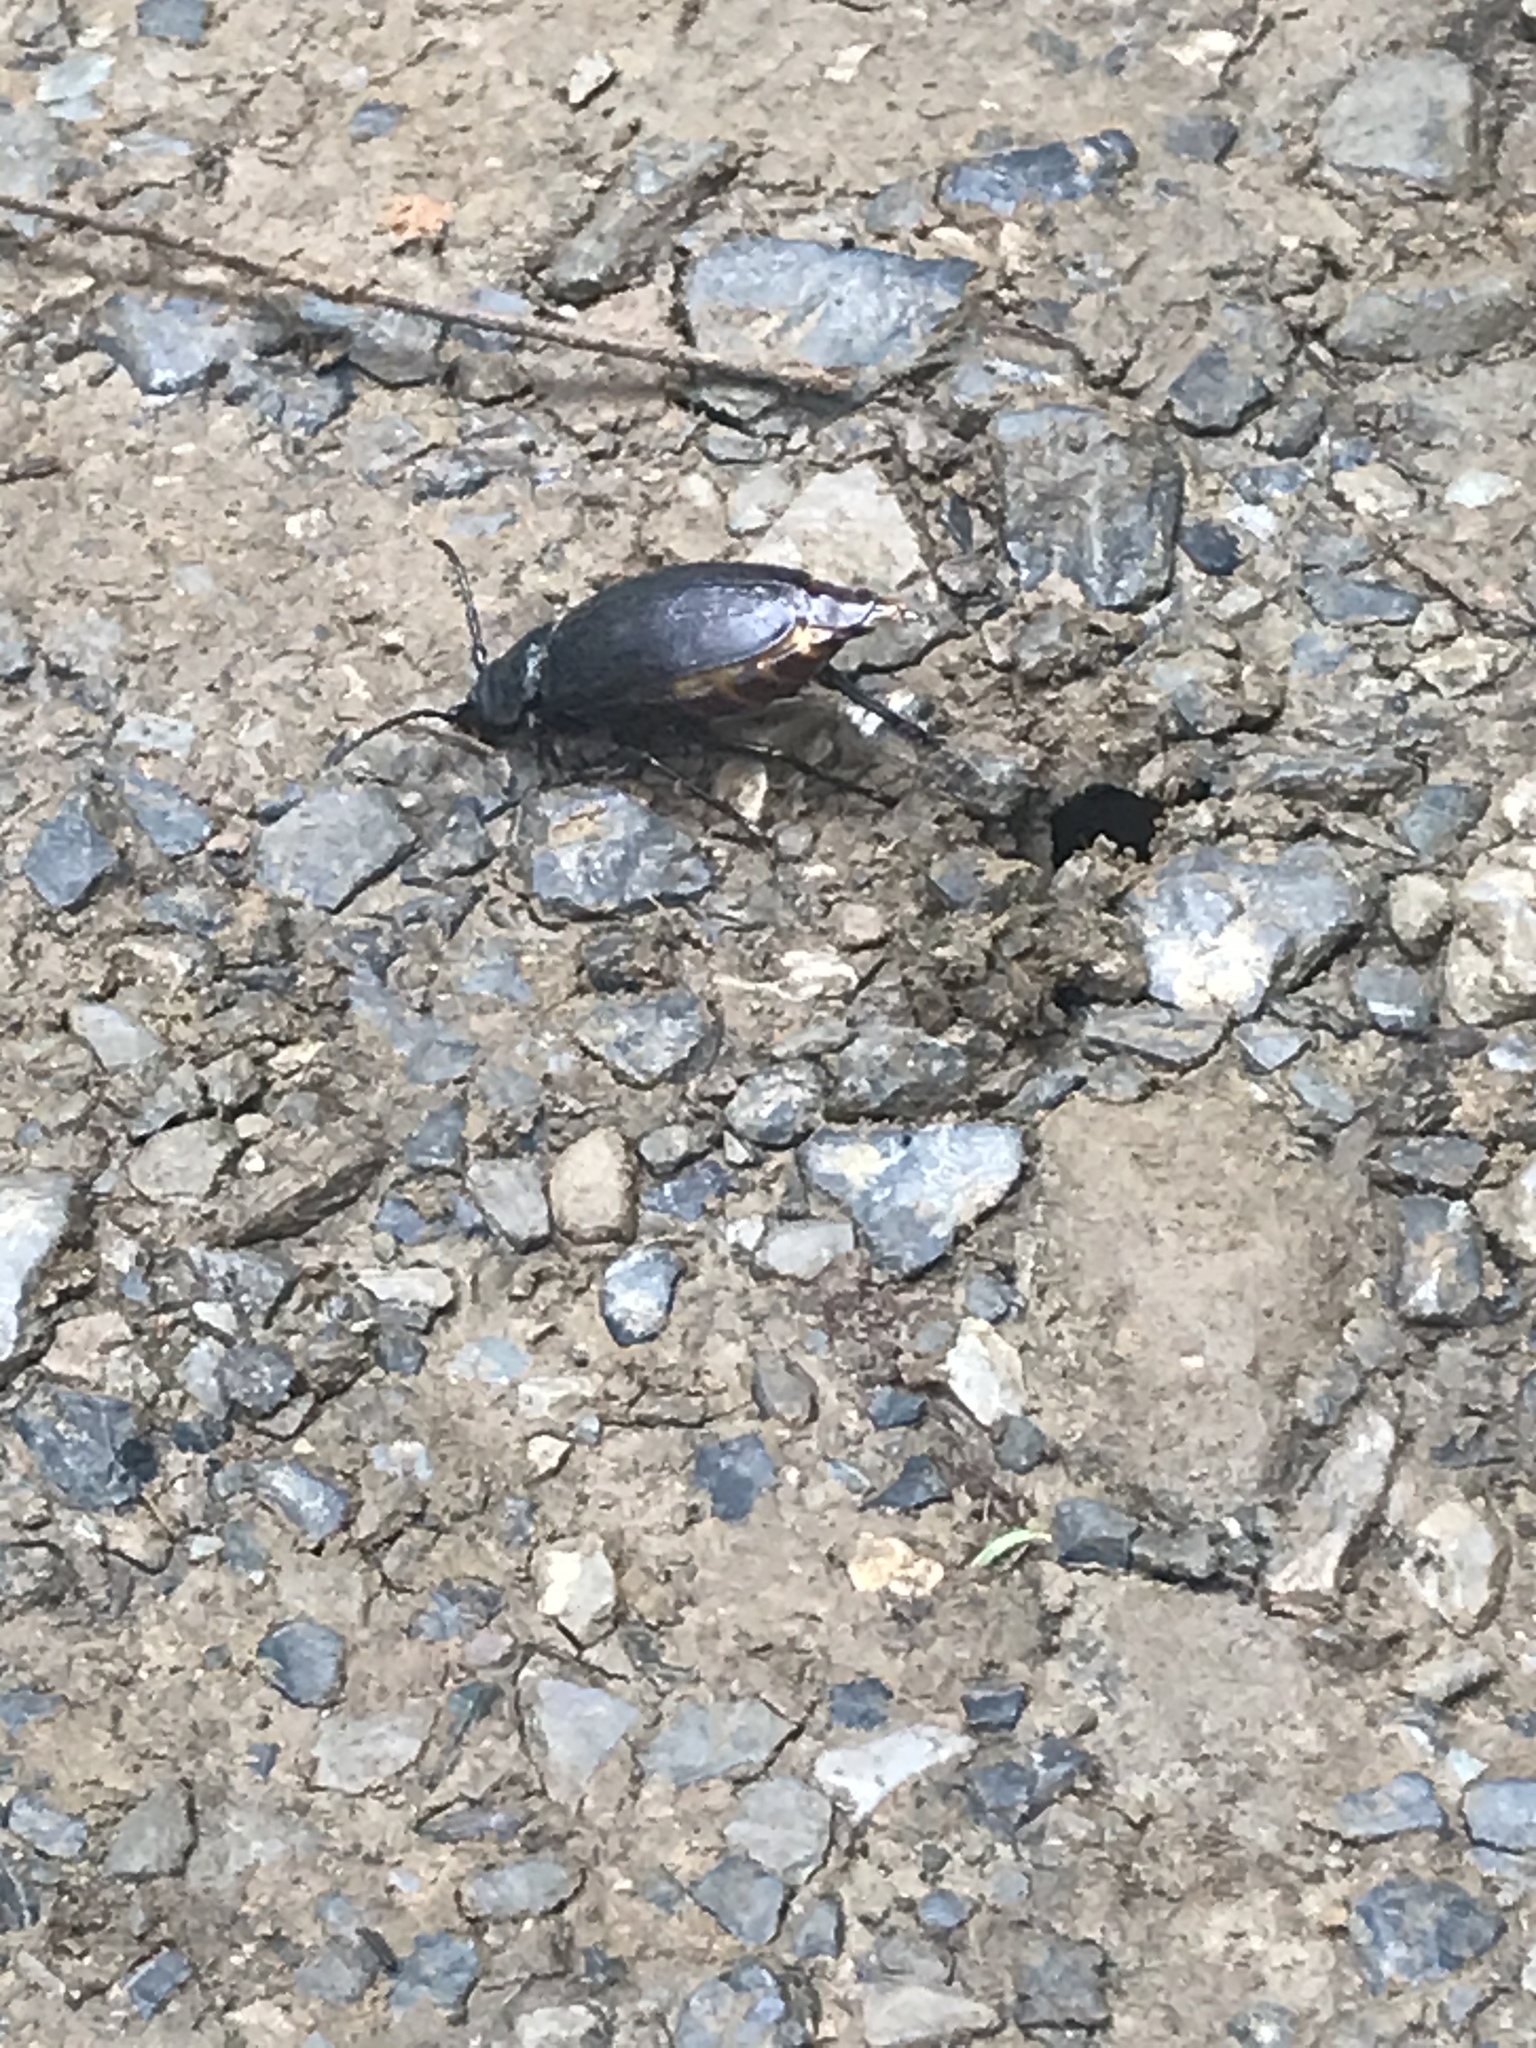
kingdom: Animalia
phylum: Arthropoda
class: Insecta
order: Coleoptera
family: Cerambycidae
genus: Prionus
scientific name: Prionus laticollis
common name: Broad necked prionus
